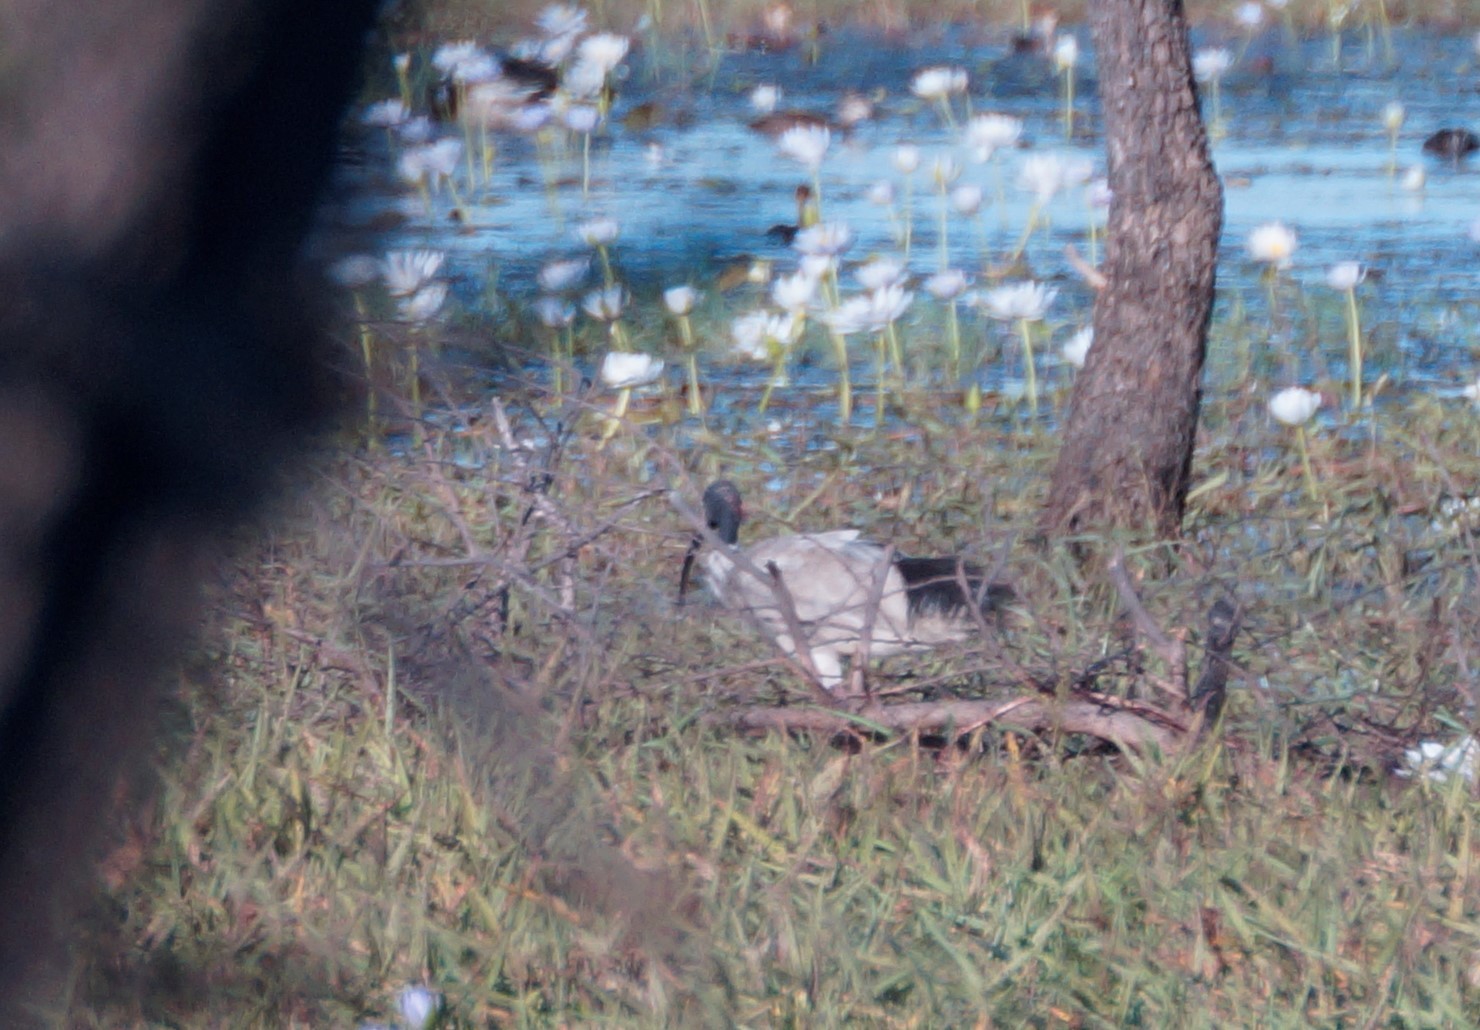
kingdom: Animalia
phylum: Chordata
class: Aves
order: Pelecaniformes
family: Threskiornithidae
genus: Threskiornis
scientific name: Threskiornis molucca
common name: Australian white ibis
